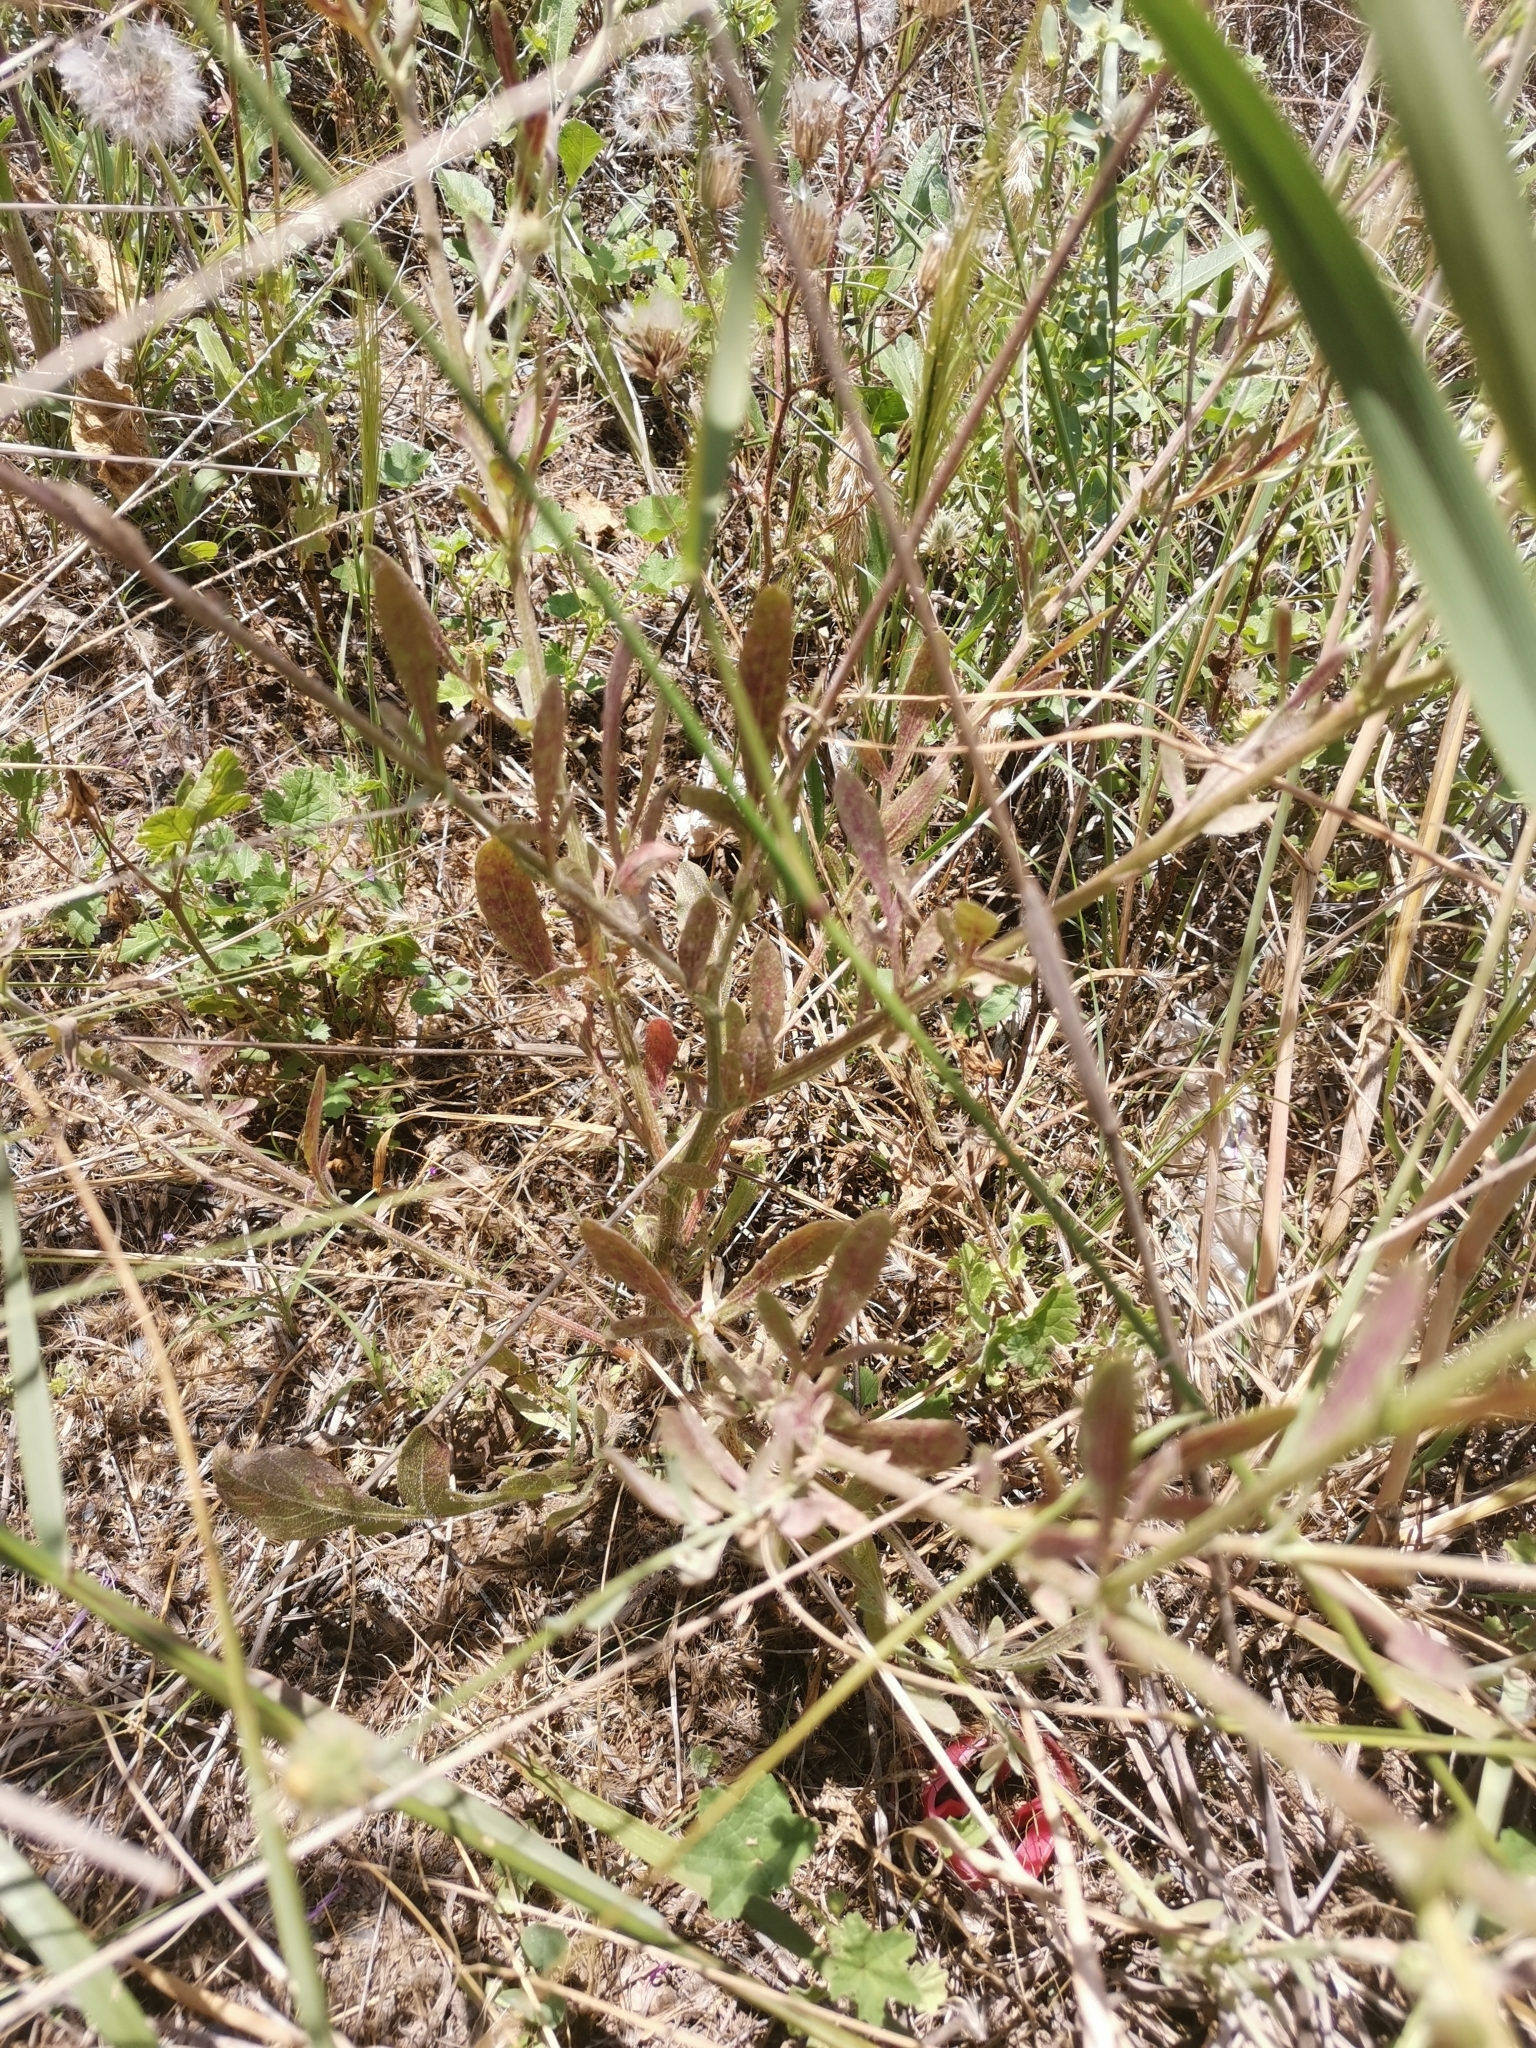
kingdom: Plantae
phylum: Tracheophyta
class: Magnoliopsida
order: Asterales
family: Asteraceae
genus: Volutaria
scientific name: Volutaria muricata
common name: Morocco knapweed
